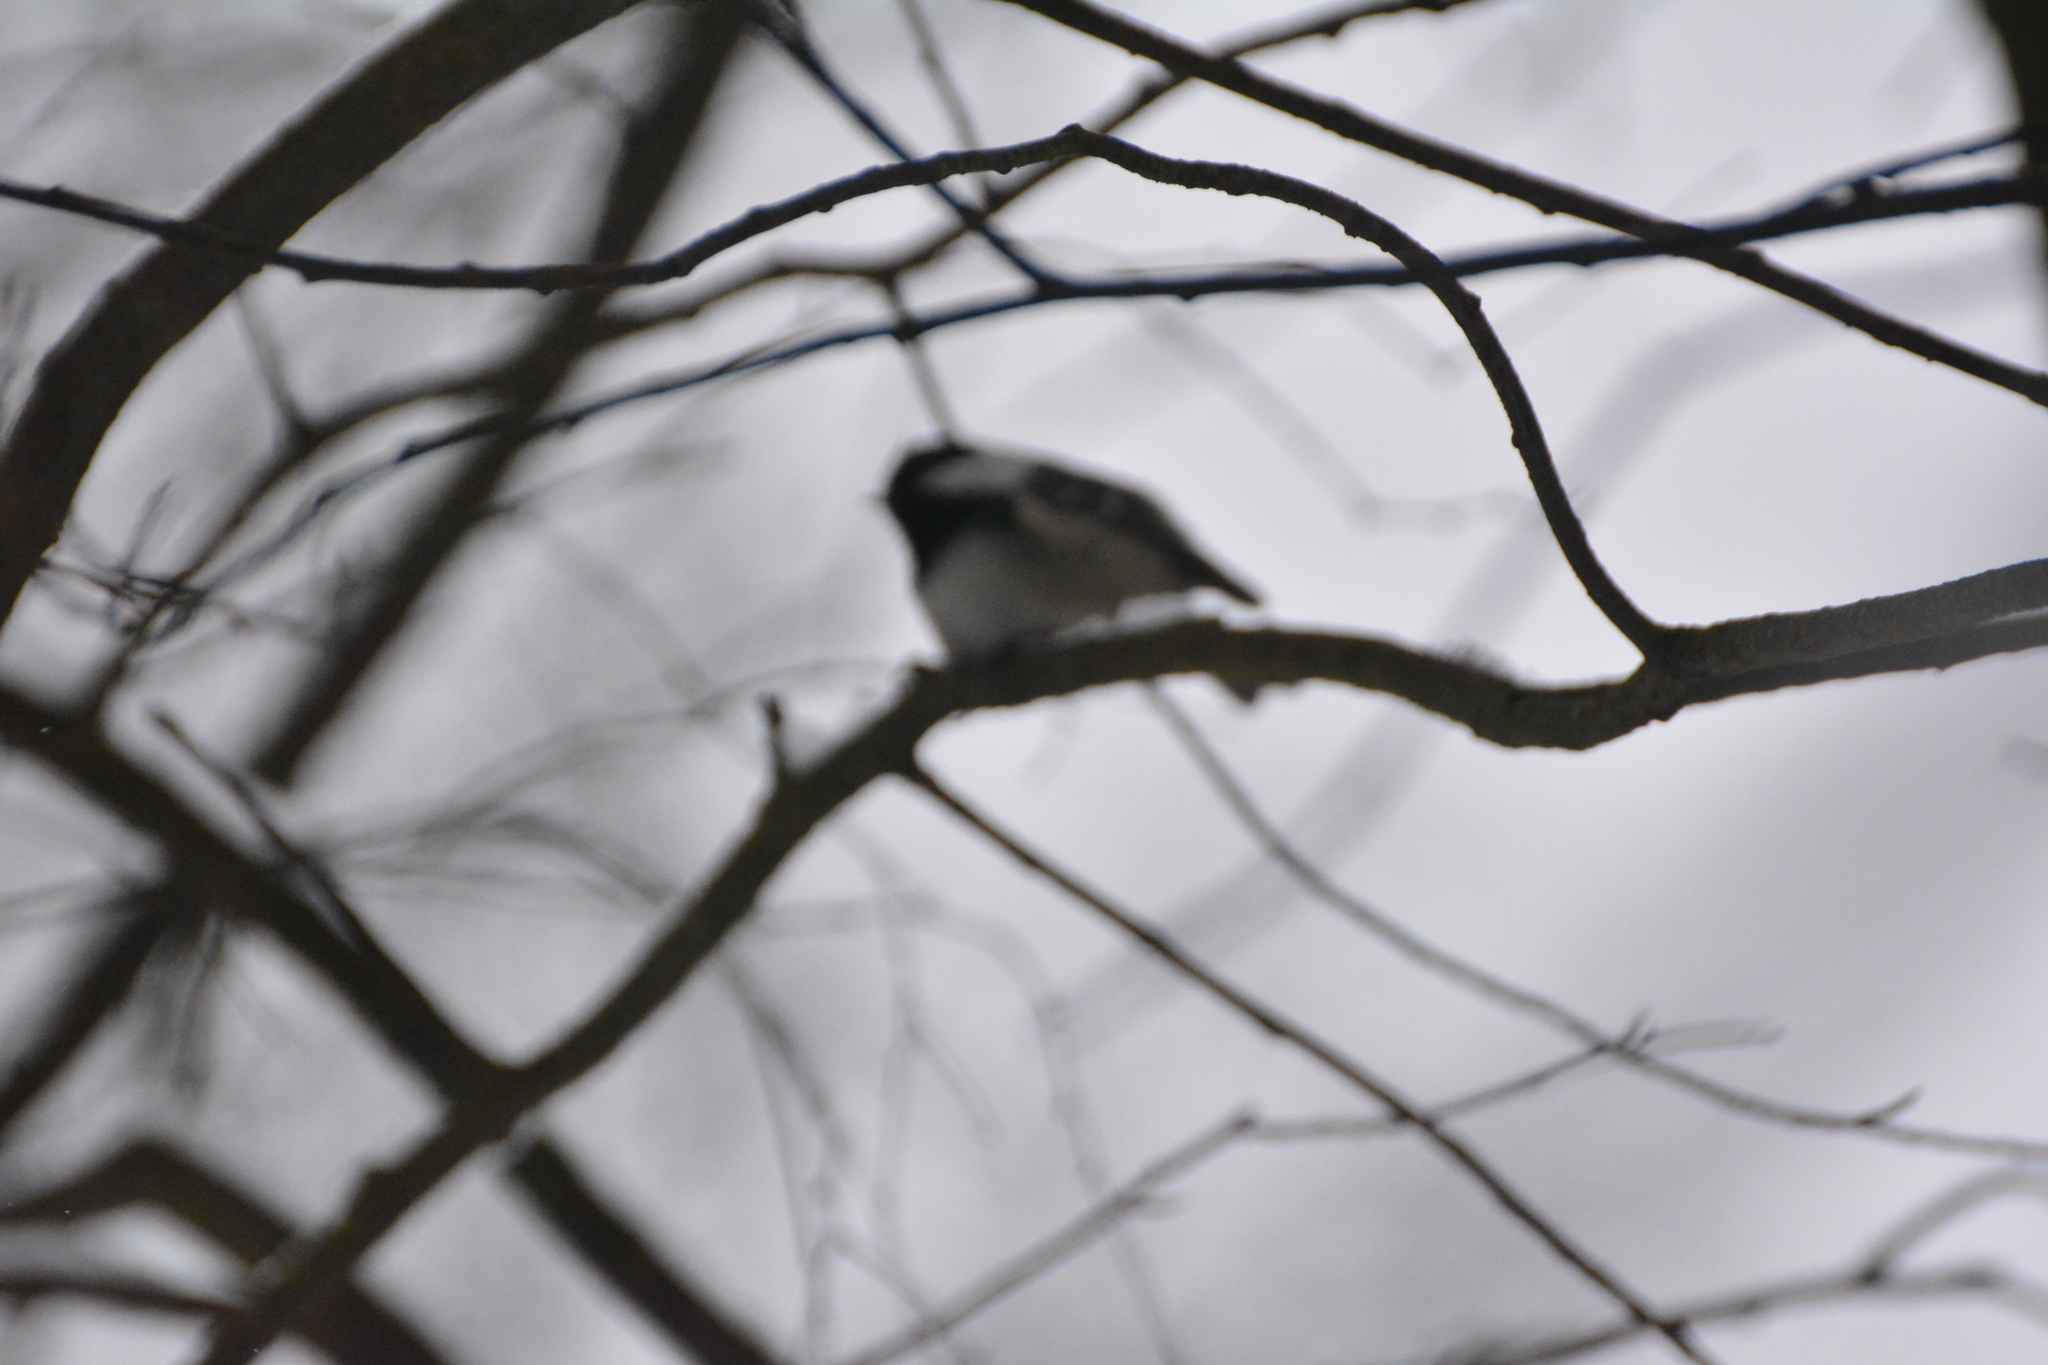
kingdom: Animalia
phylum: Chordata
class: Aves
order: Passeriformes
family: Paridae
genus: Periparus
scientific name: Periparus ater
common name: Coal tit
